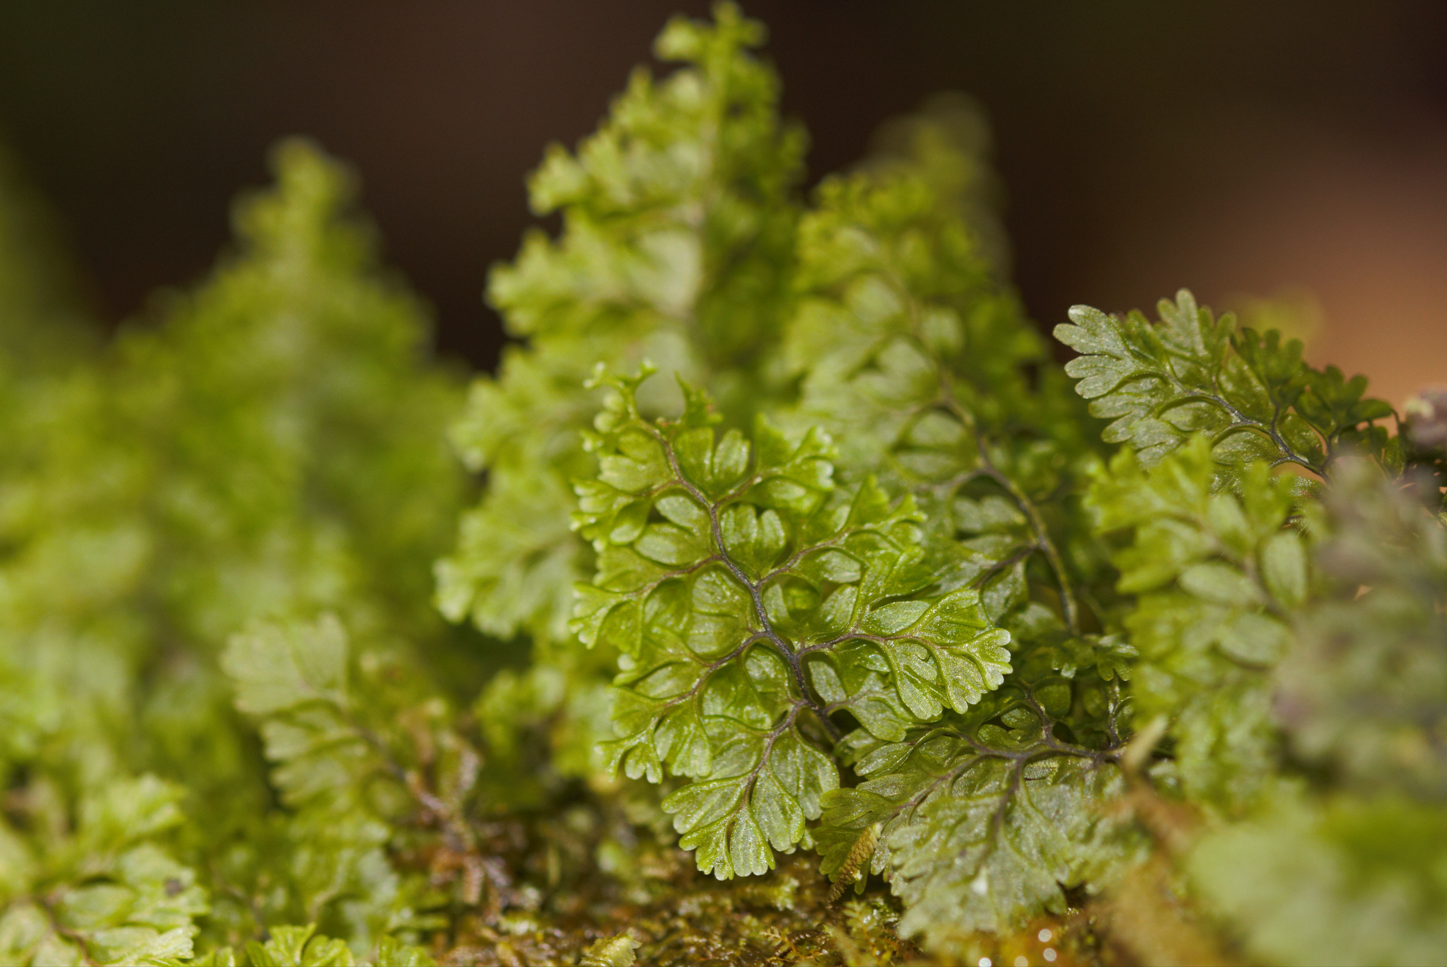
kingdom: Plantae
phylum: Tracheophyta
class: Polypodiopsida
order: Hymenophyllales
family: Hymenophyllaceae
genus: Hymenophyllum
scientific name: Hymenophyllum polyanthos
